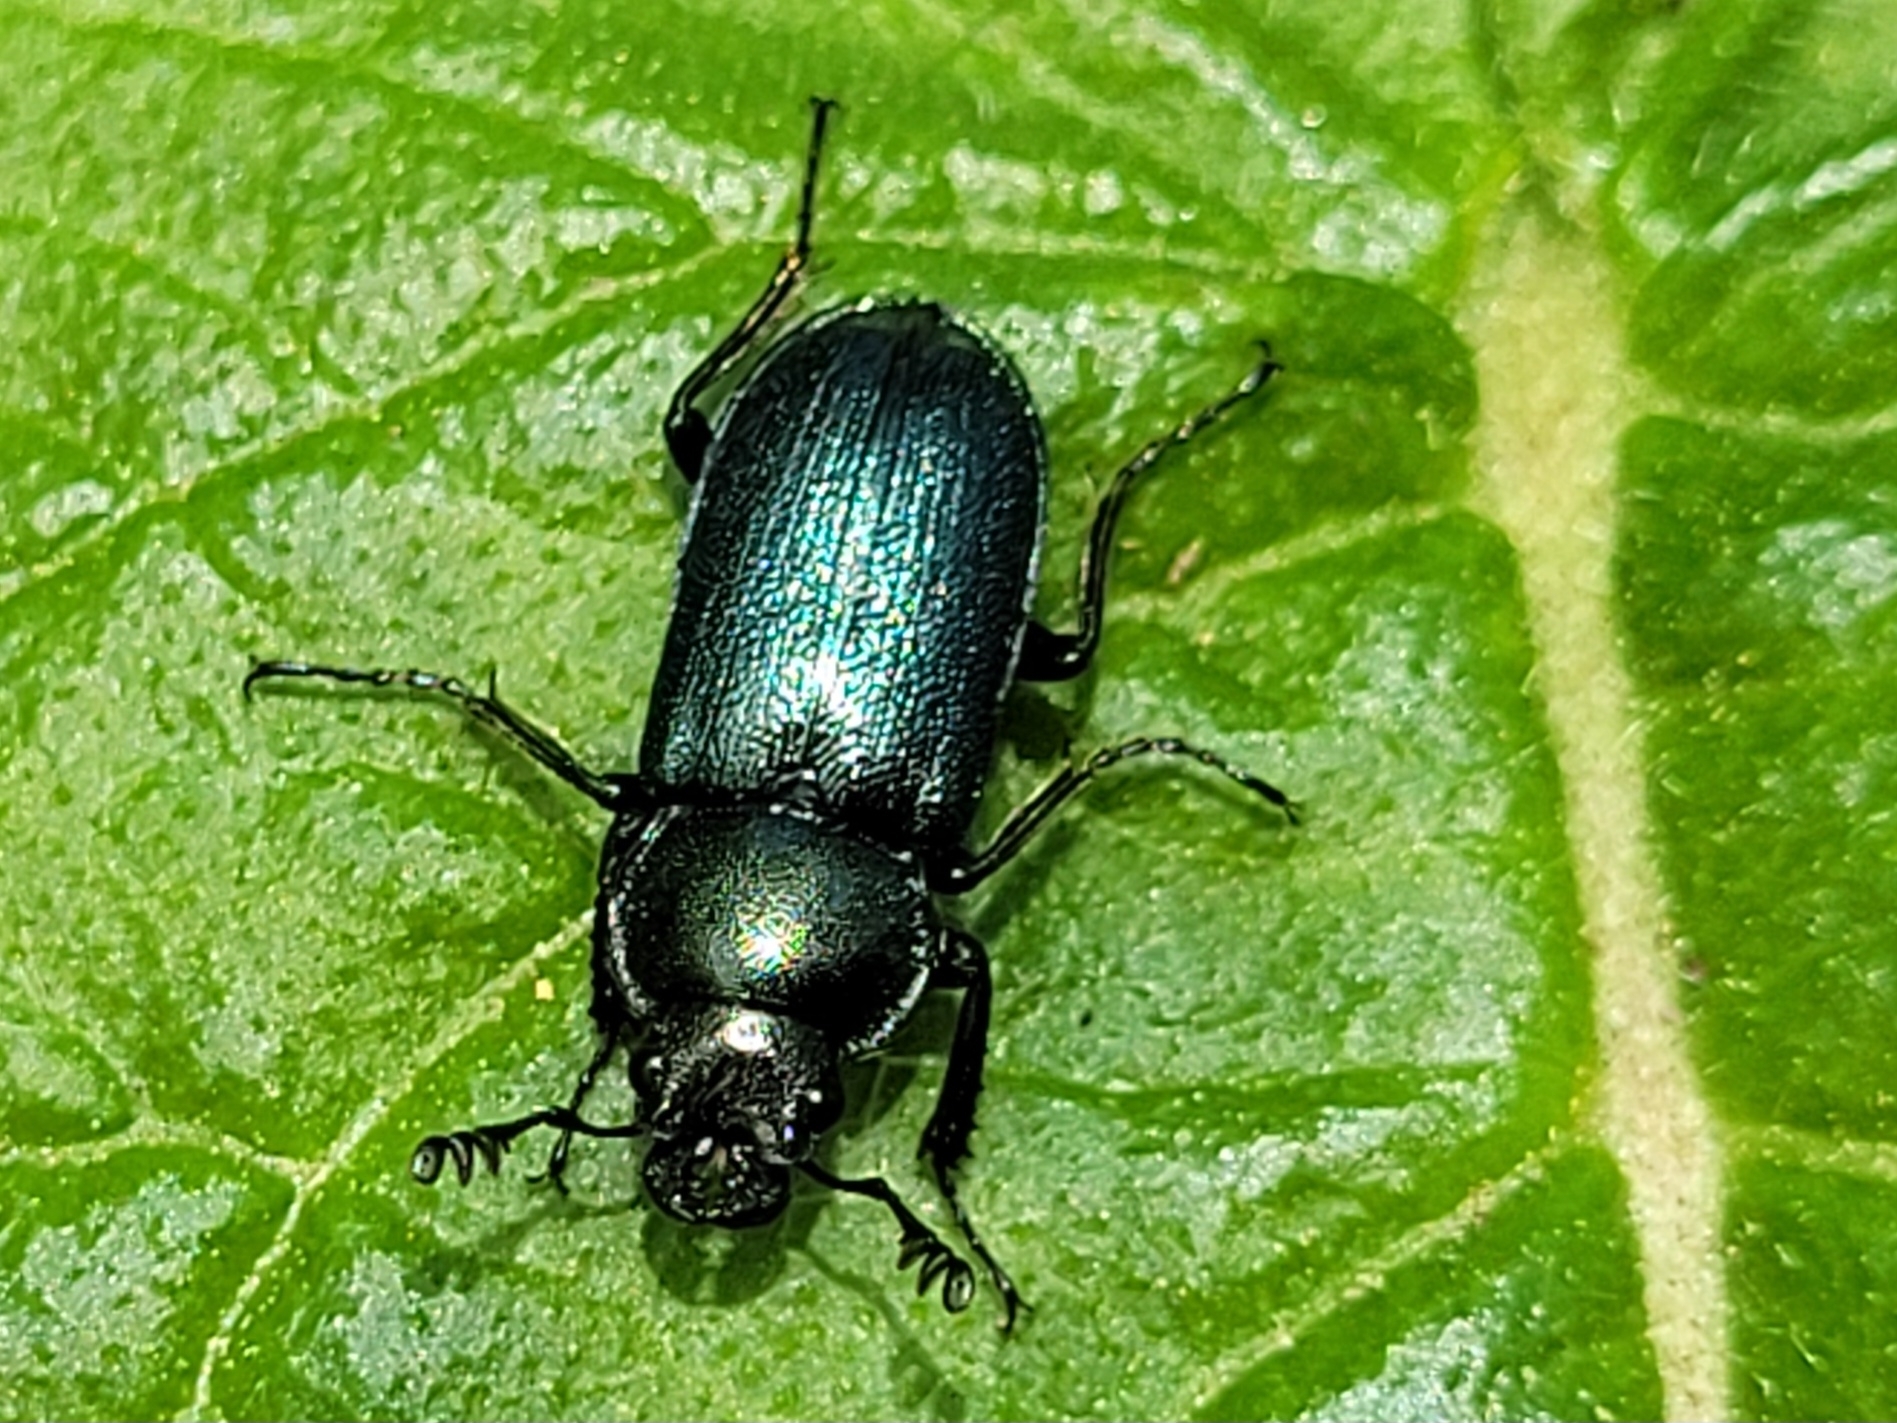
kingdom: Animalia
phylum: Arthropoda
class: Insecta
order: Coleoptera
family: Lucanidae
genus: Platycerus
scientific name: Platycerus caraboides
